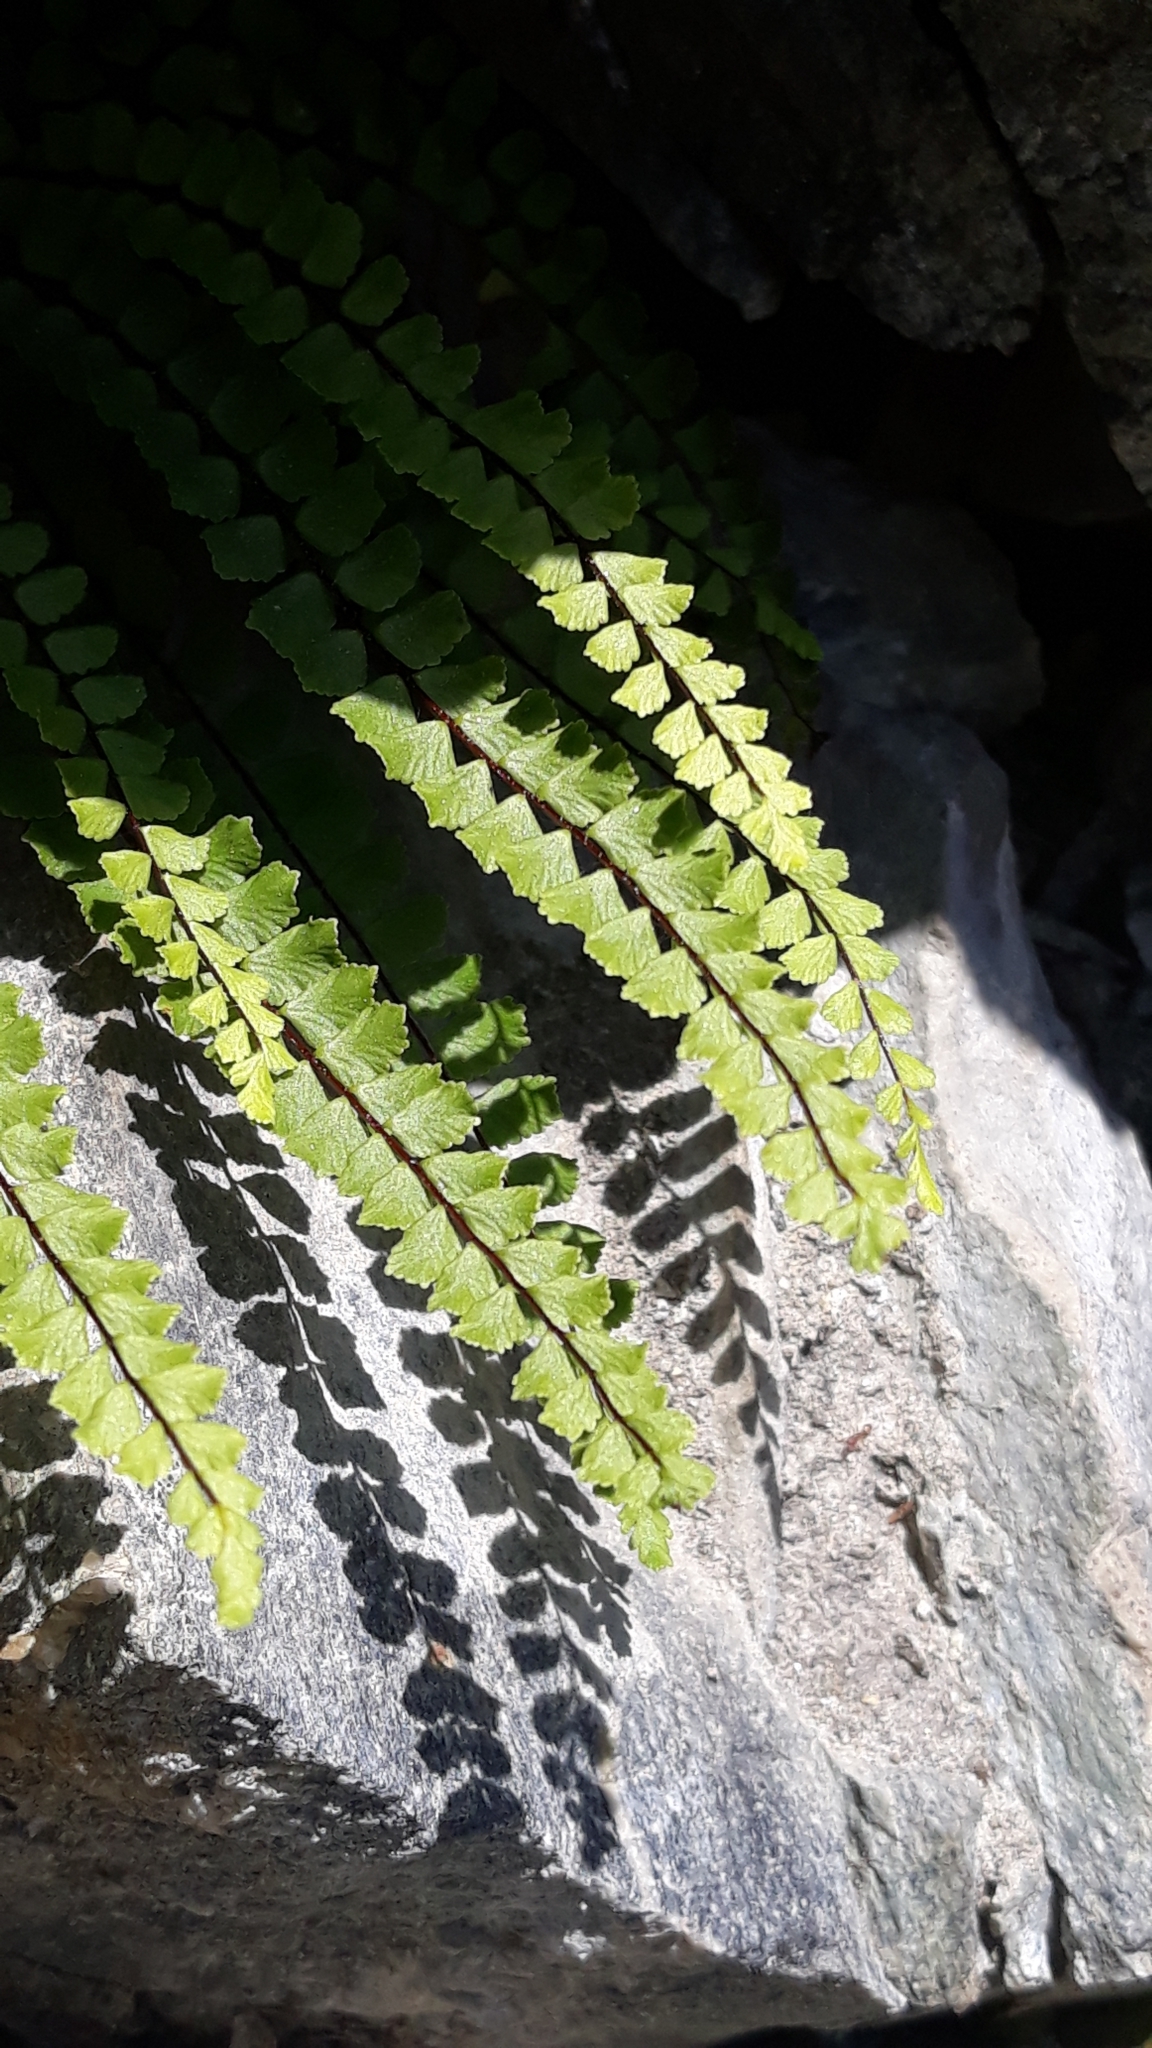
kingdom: Plantae
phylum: Tracheophyta
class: Polypodiopsida
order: Polypodiales
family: Aspleniaceae
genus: Asplenium
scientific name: Asplenium trichomanes
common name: Maidenhair spleenwort
